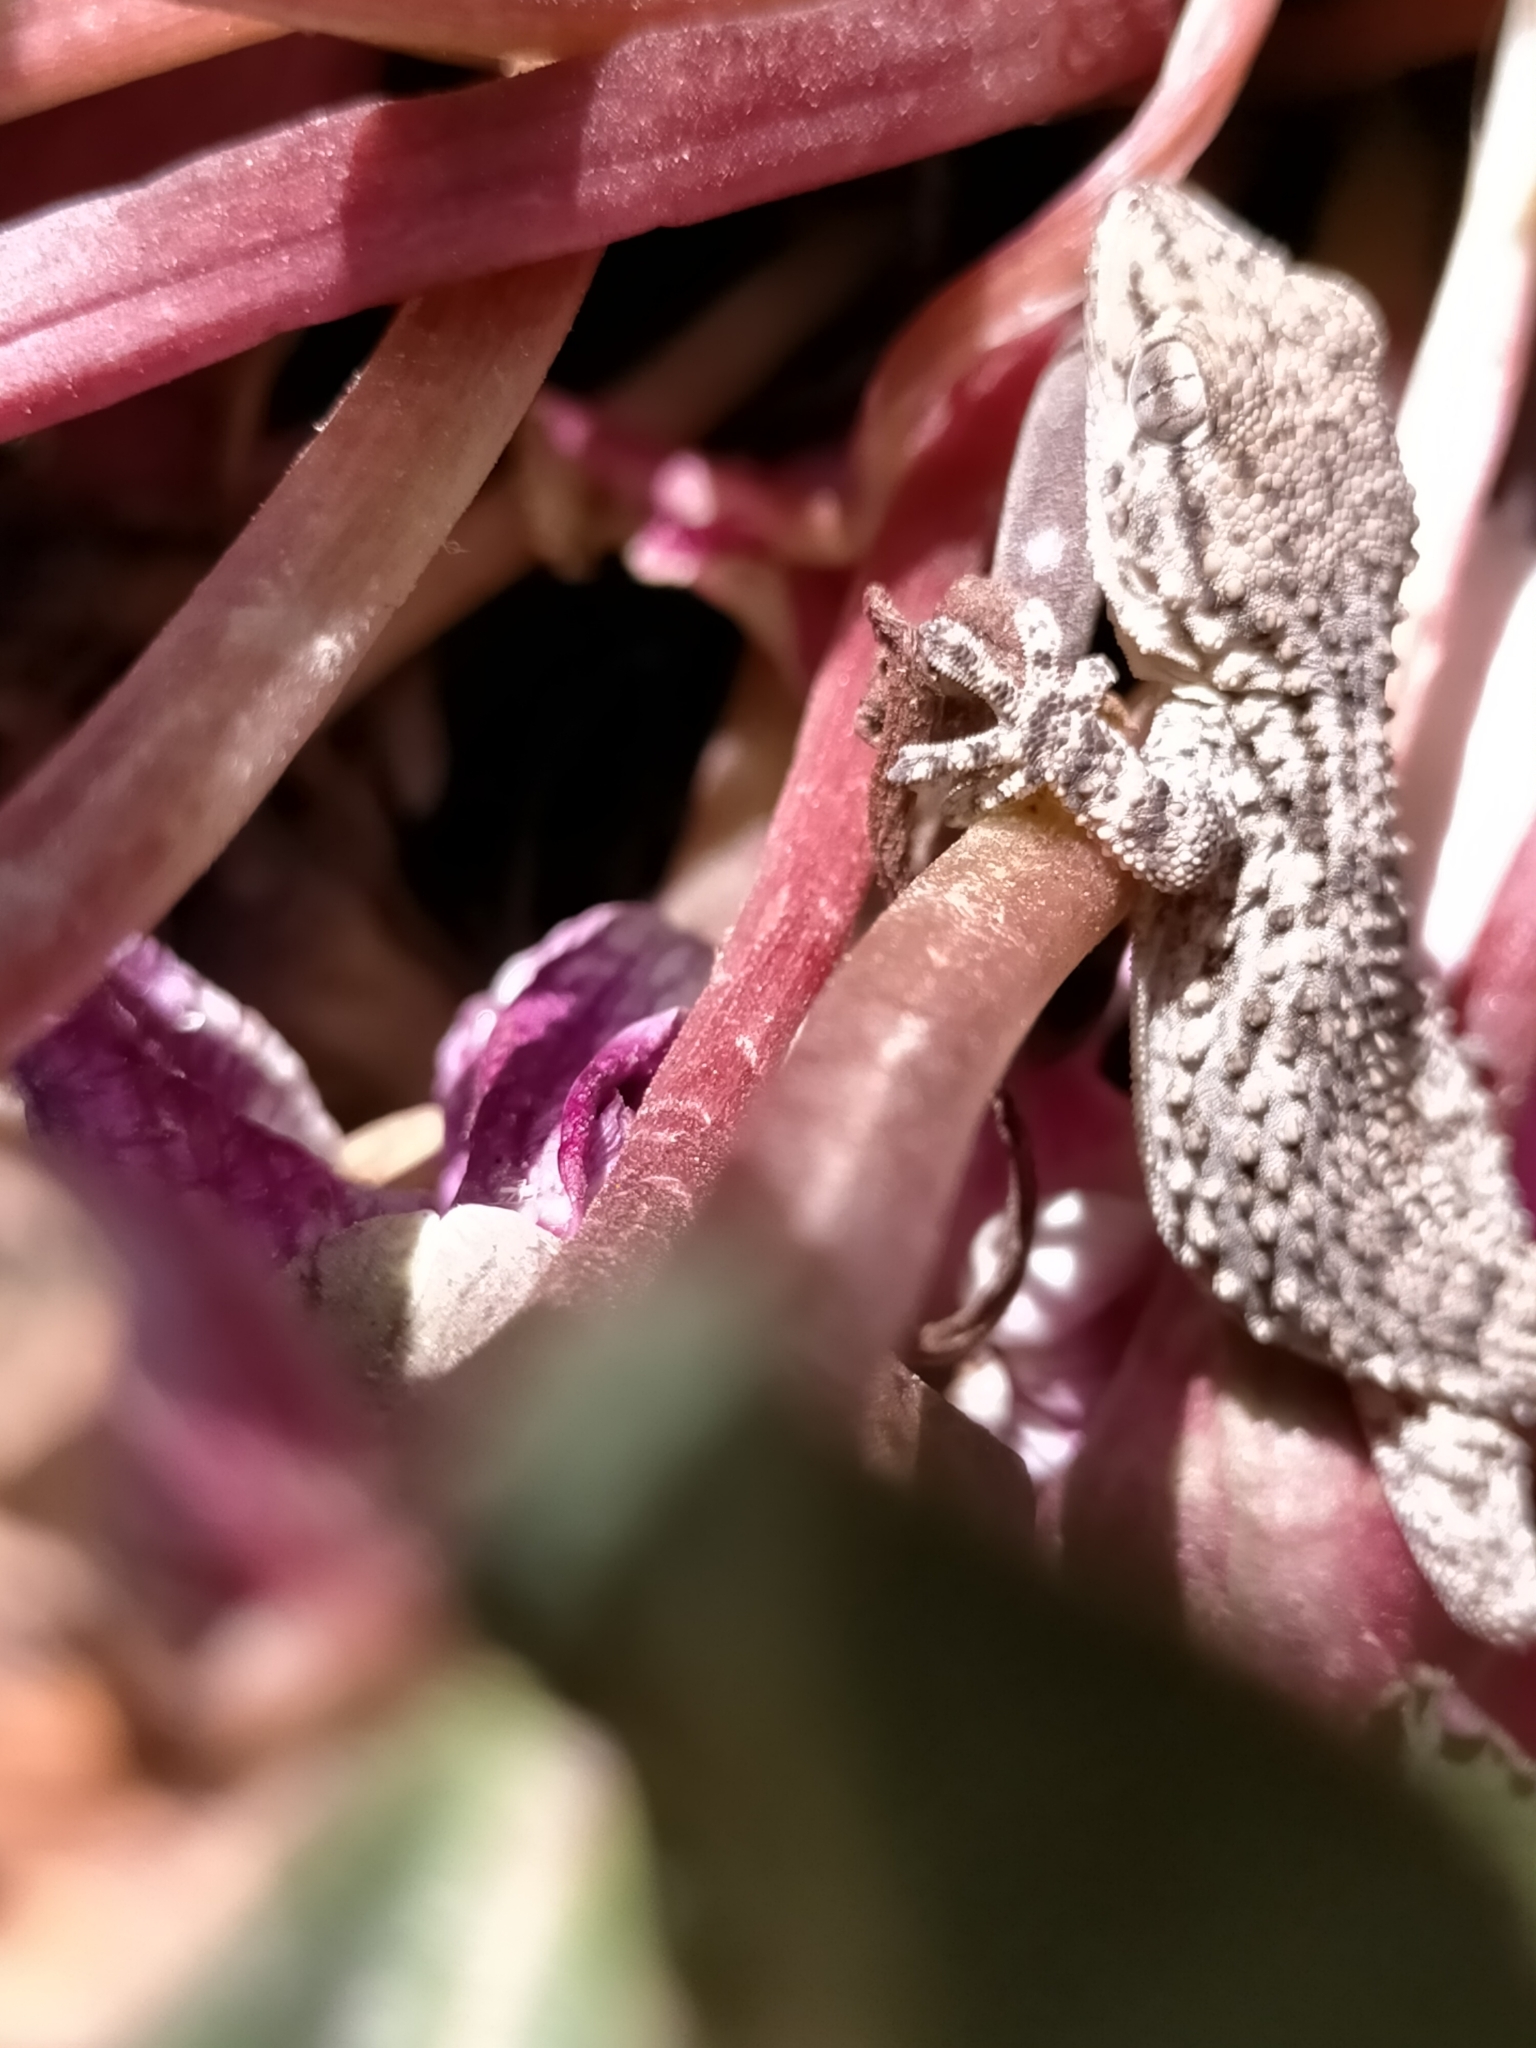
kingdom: Animalia
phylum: Chordata
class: Squamata
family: Phyllodactylidae
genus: Tarentola
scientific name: Tarentola mauritanica
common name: Moorish gecko
